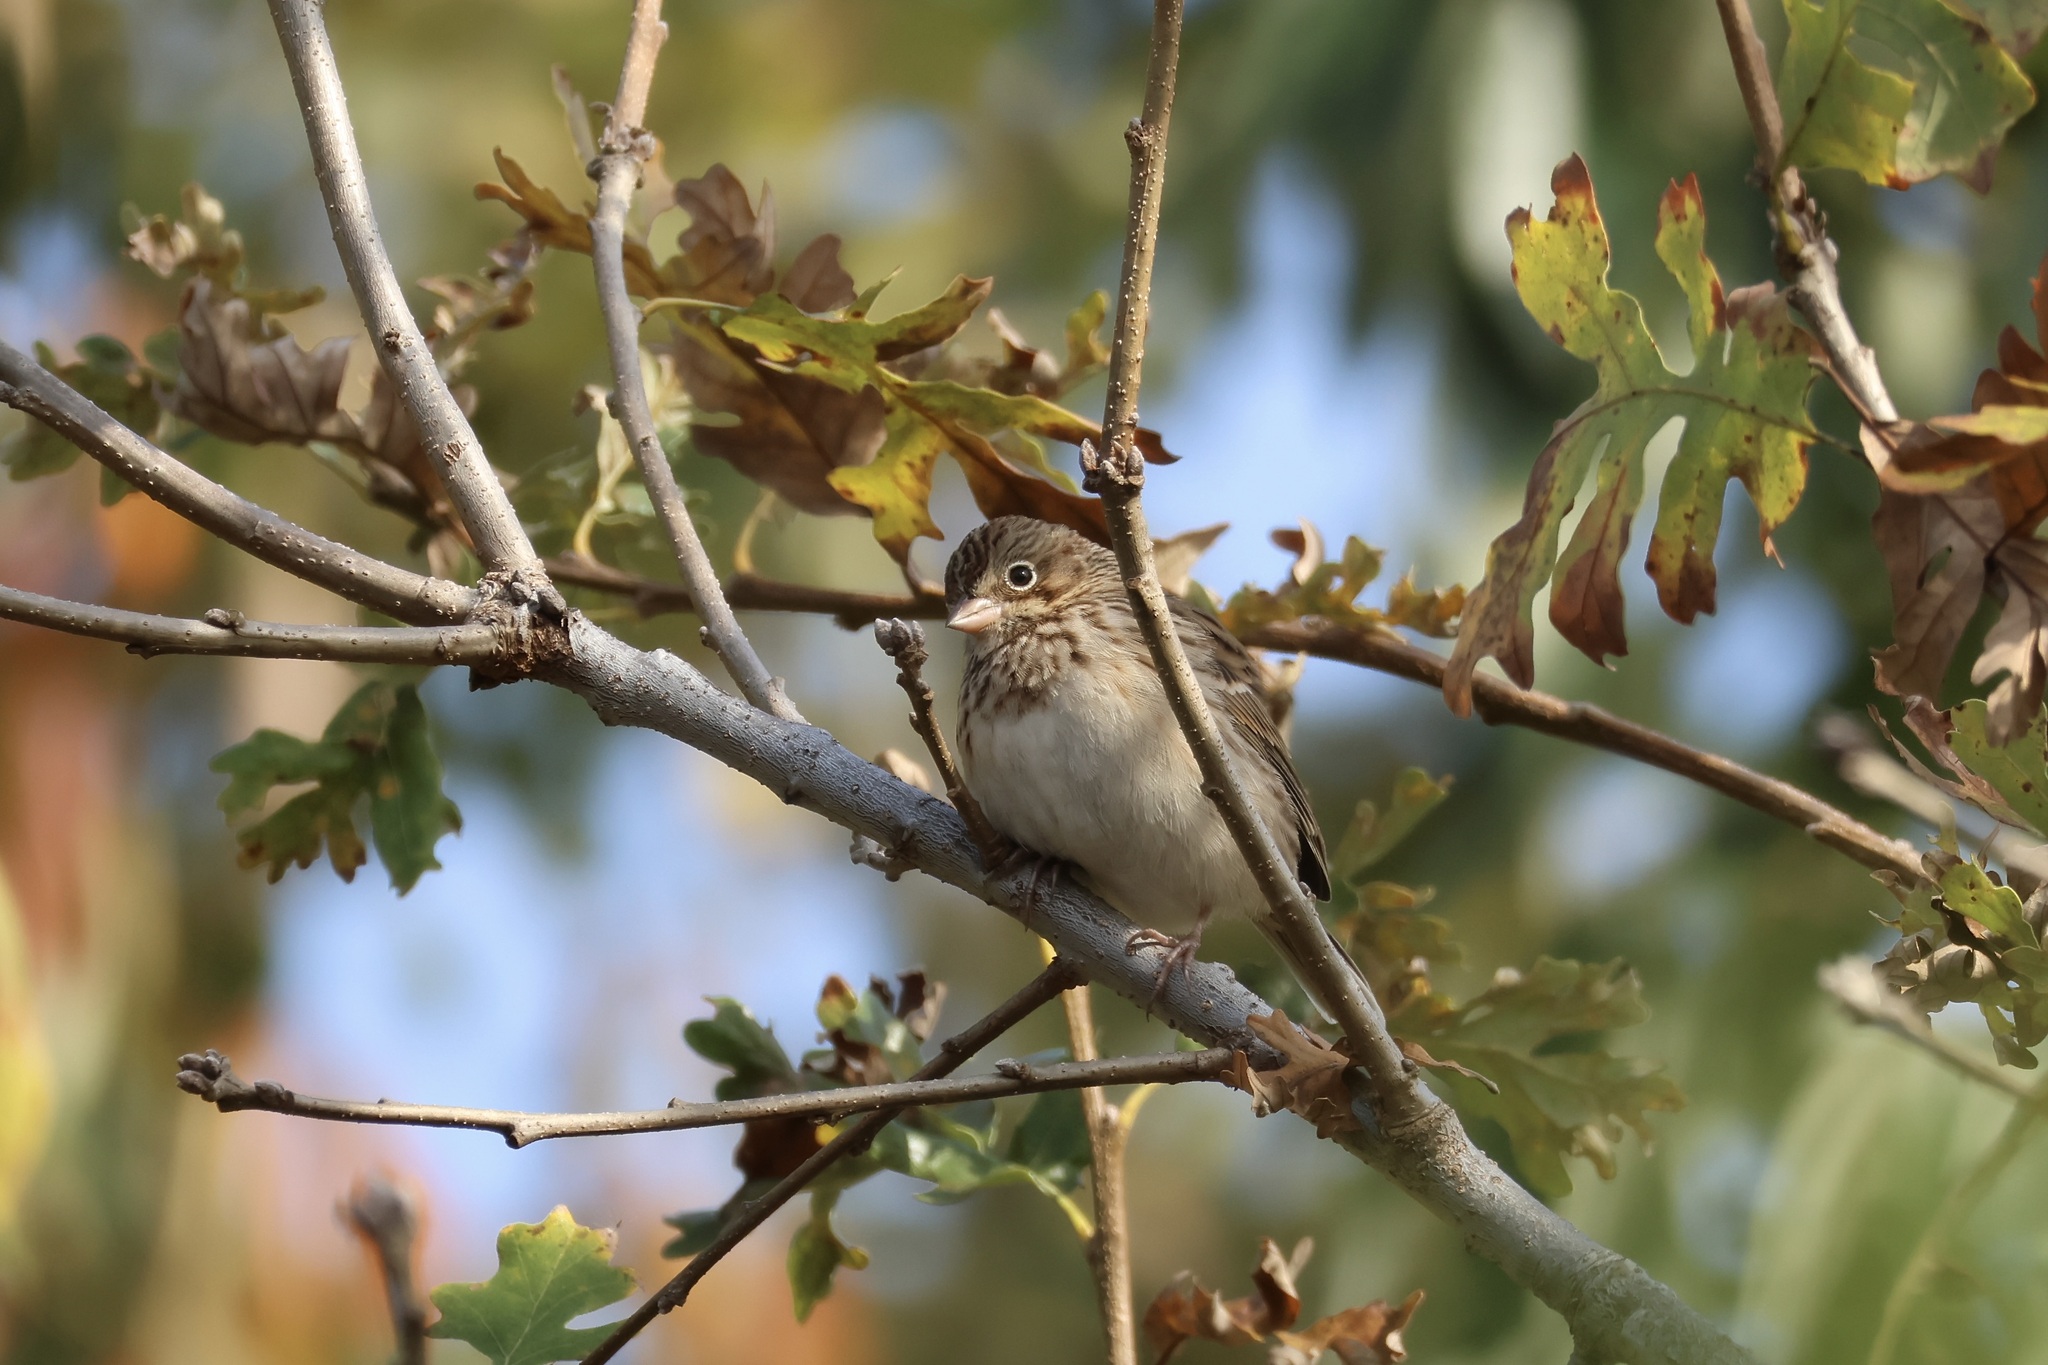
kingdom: Animalia
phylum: Chordata
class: Aves
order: Passeriformes
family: Passerellidae
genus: Pooecetes
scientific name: Pooecetes gramineus
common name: Vesper sparrow
